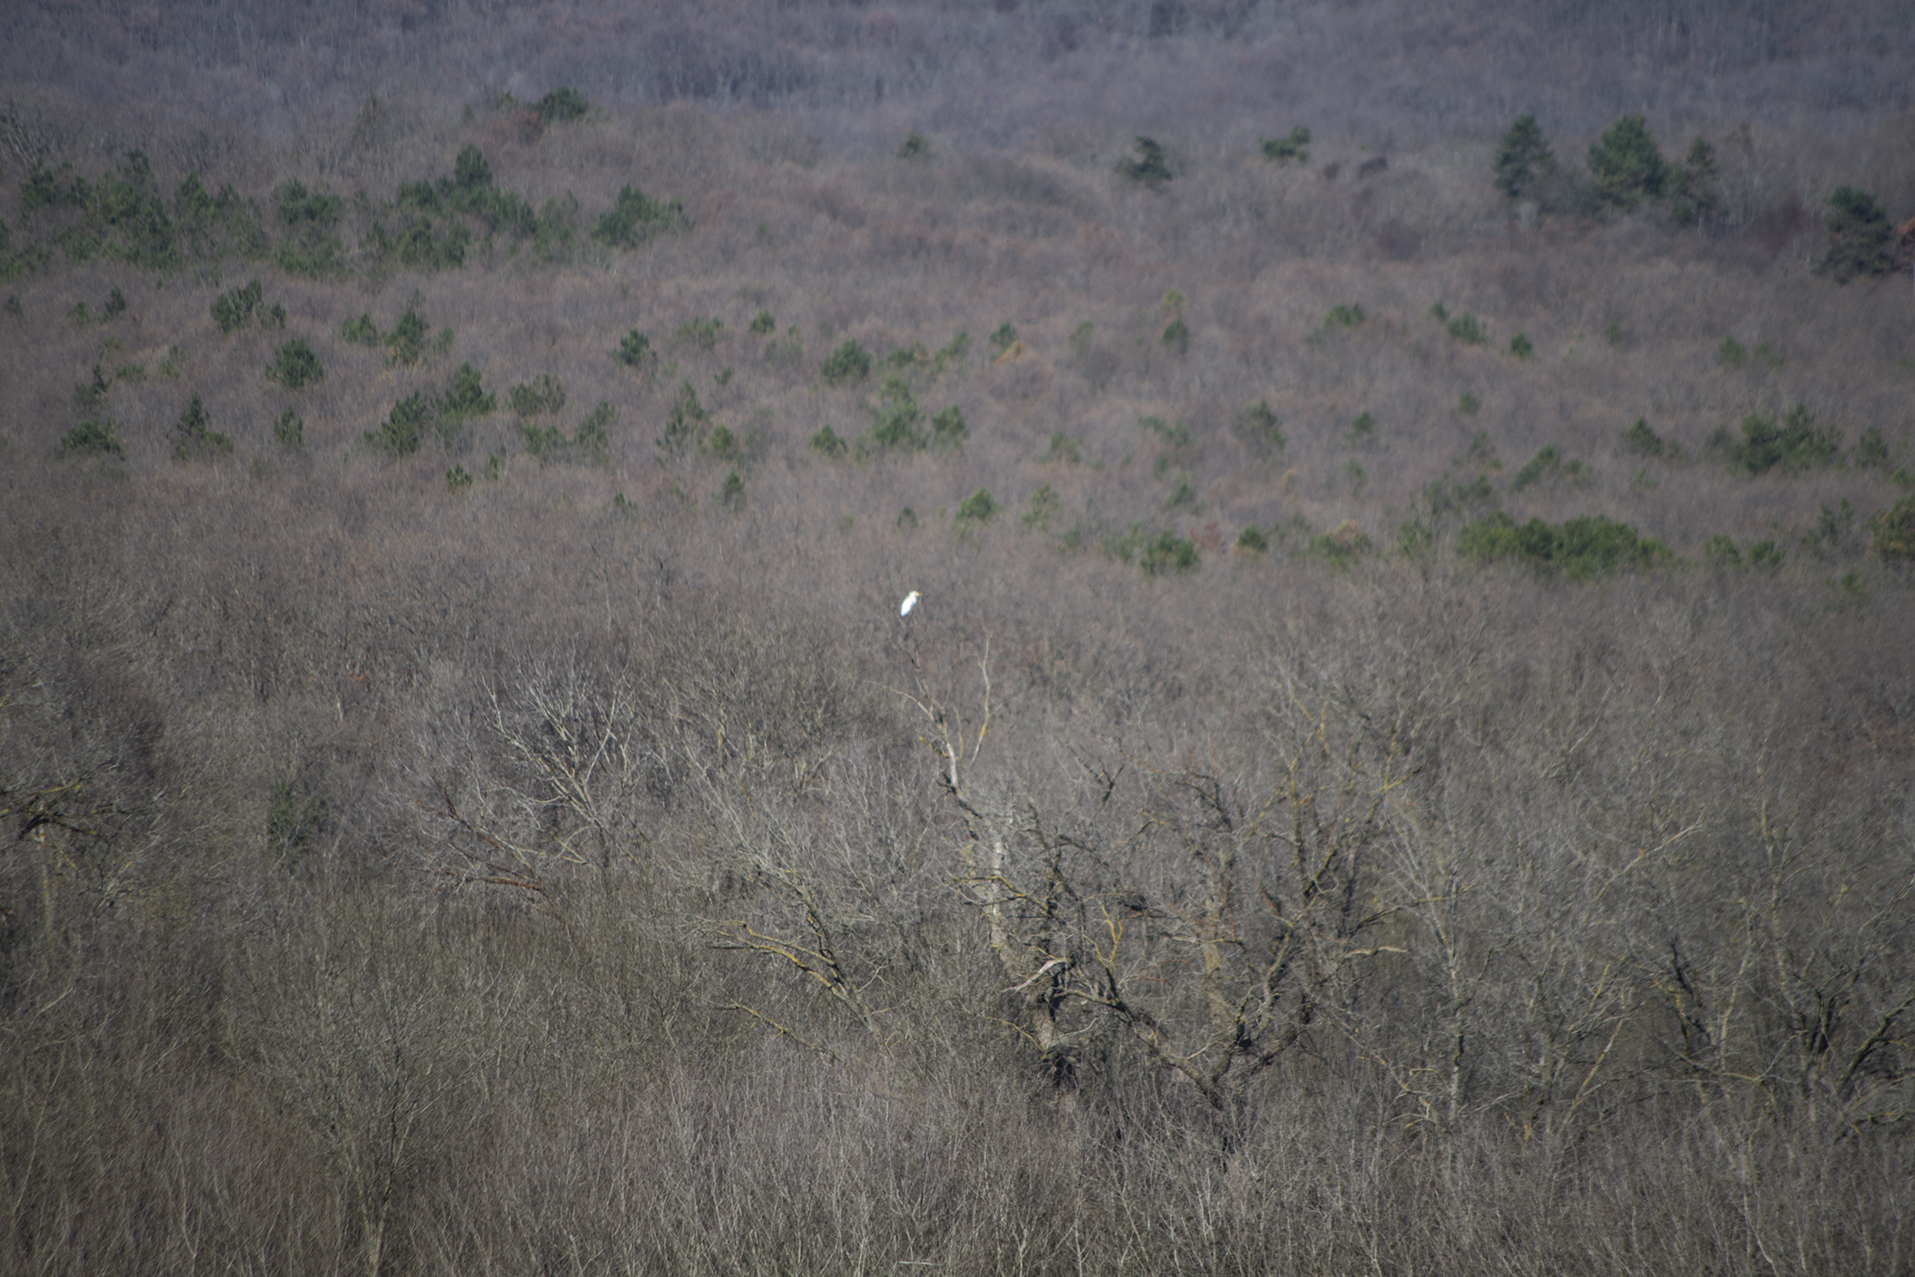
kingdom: Animalia
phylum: Chordata
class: Aves
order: Pelecaniformes
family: Ardeidae
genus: Ardea
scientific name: Ardea alba
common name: Great egret
